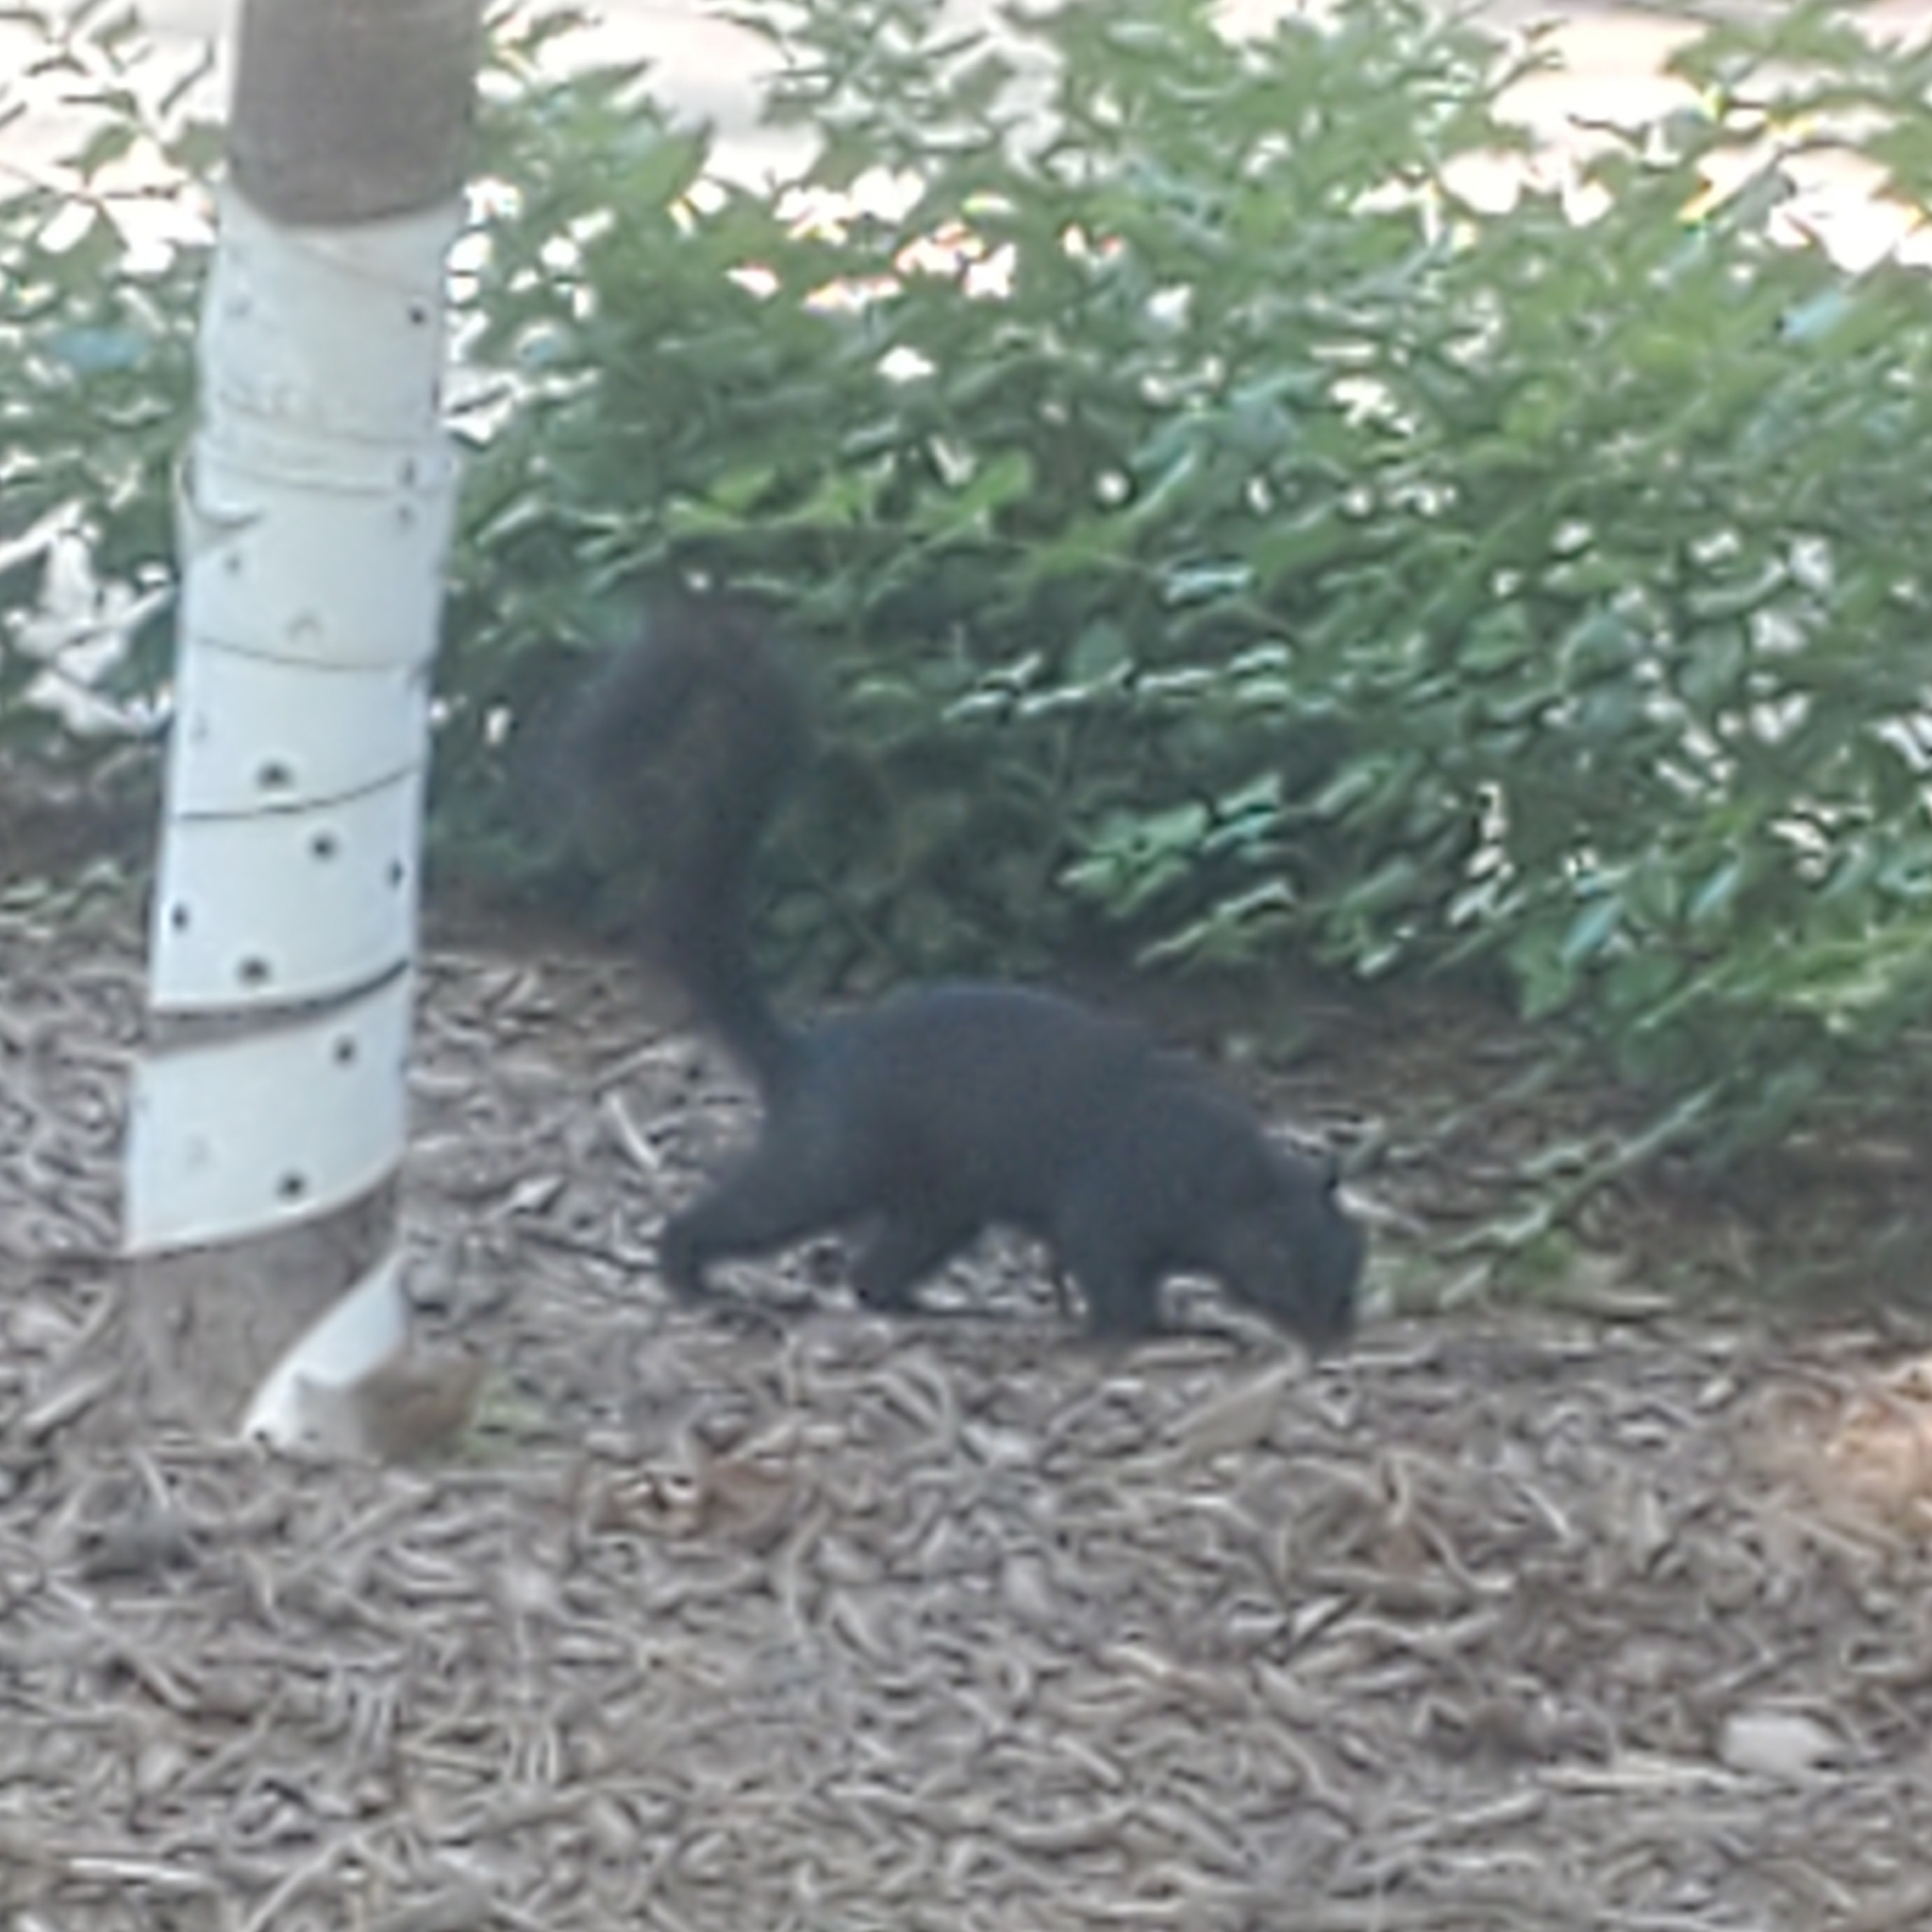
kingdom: Animalia
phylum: Chordata
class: Mammalia
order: Rodentia
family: Sciuridae
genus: Sciurus
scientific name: Sciurus niger
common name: Fox squirrel
